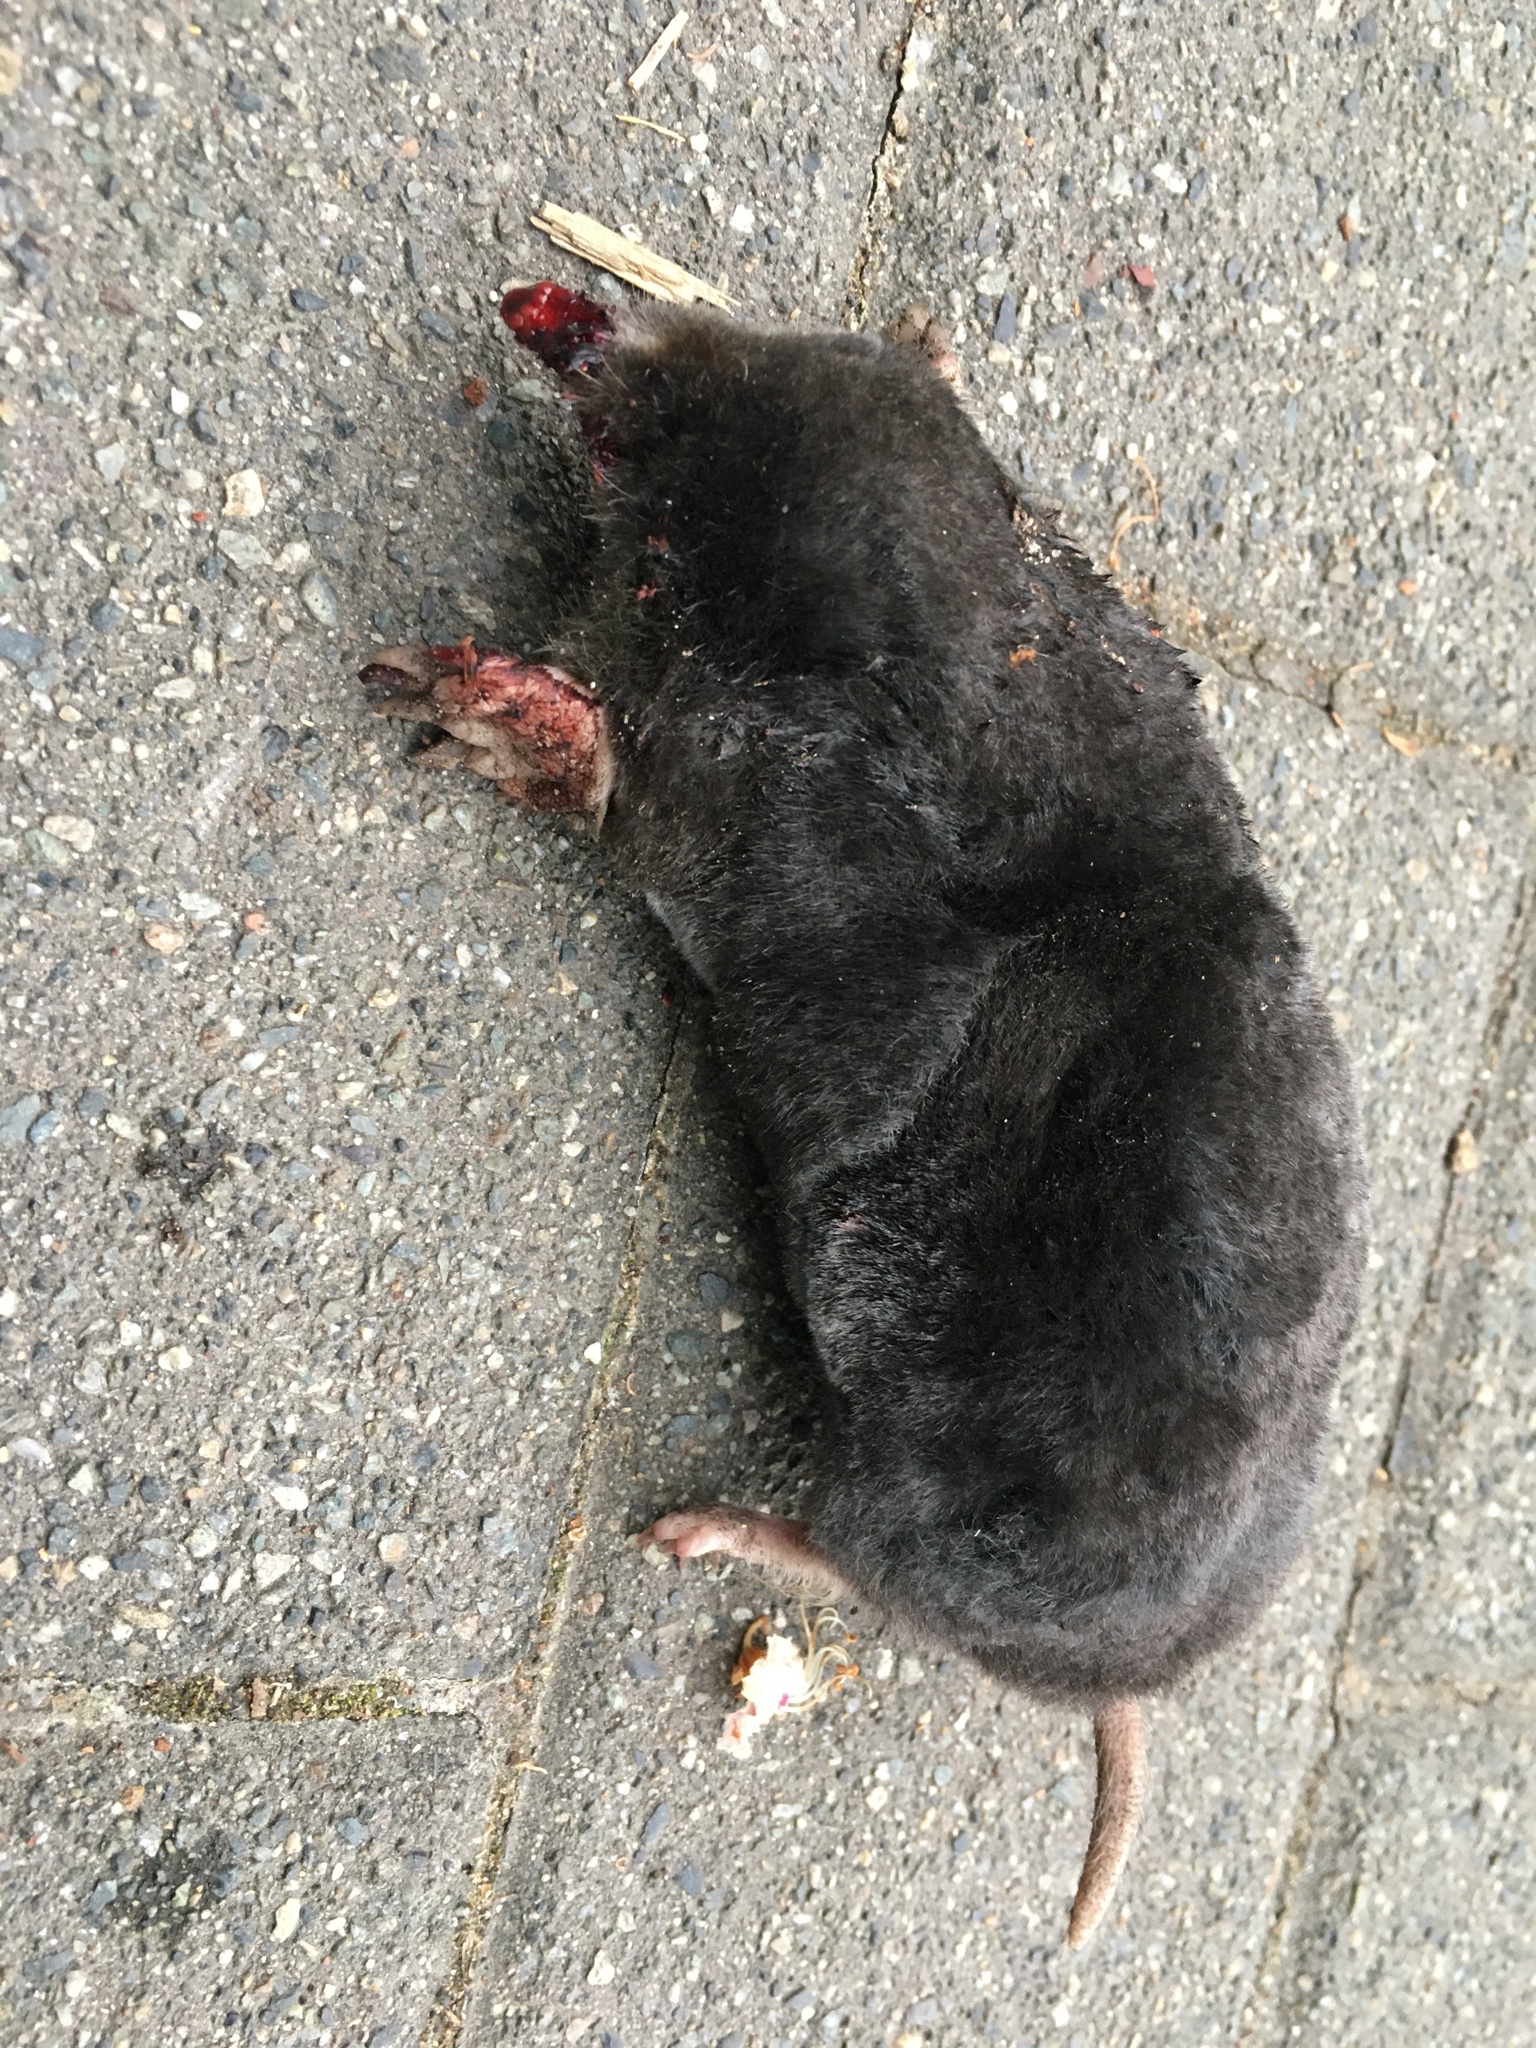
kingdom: Animalia
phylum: Chordata
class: Mammalia
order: Soricomorpha
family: Talpidae
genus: Scapanus
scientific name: Scapanus orarius
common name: Coast mole
